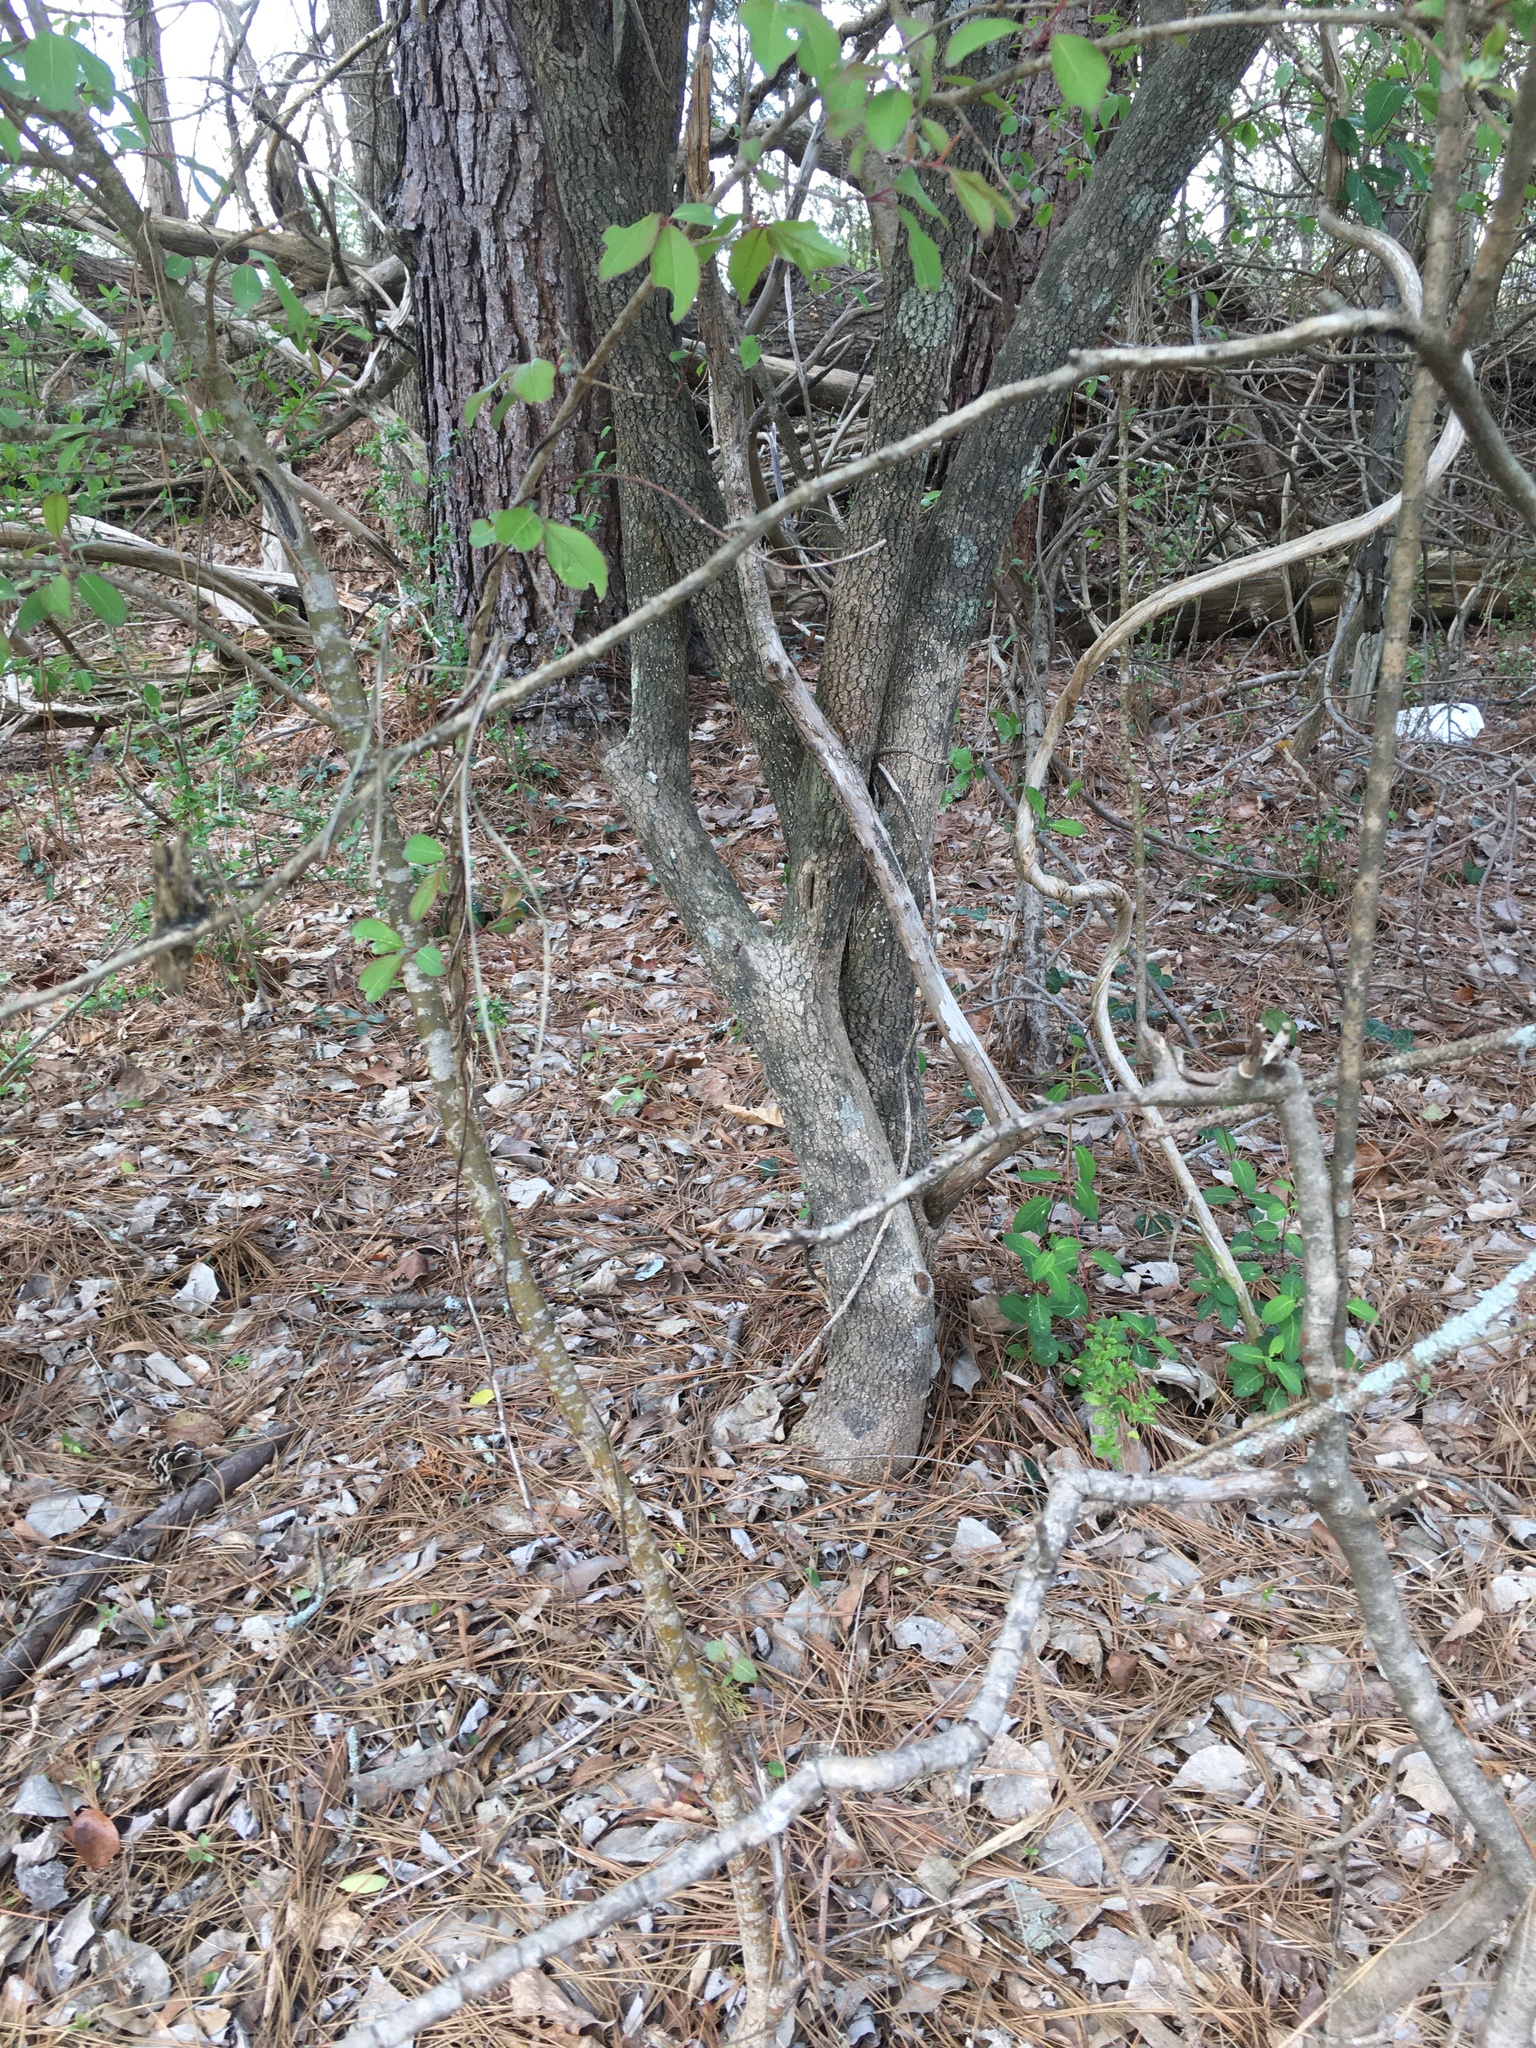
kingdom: Plantae
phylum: Tracheophyta
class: Magnoliopsida
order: Dipsacales
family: Viburnaceae
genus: Viburnum
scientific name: Viburnum prunifolium
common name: Black haw
